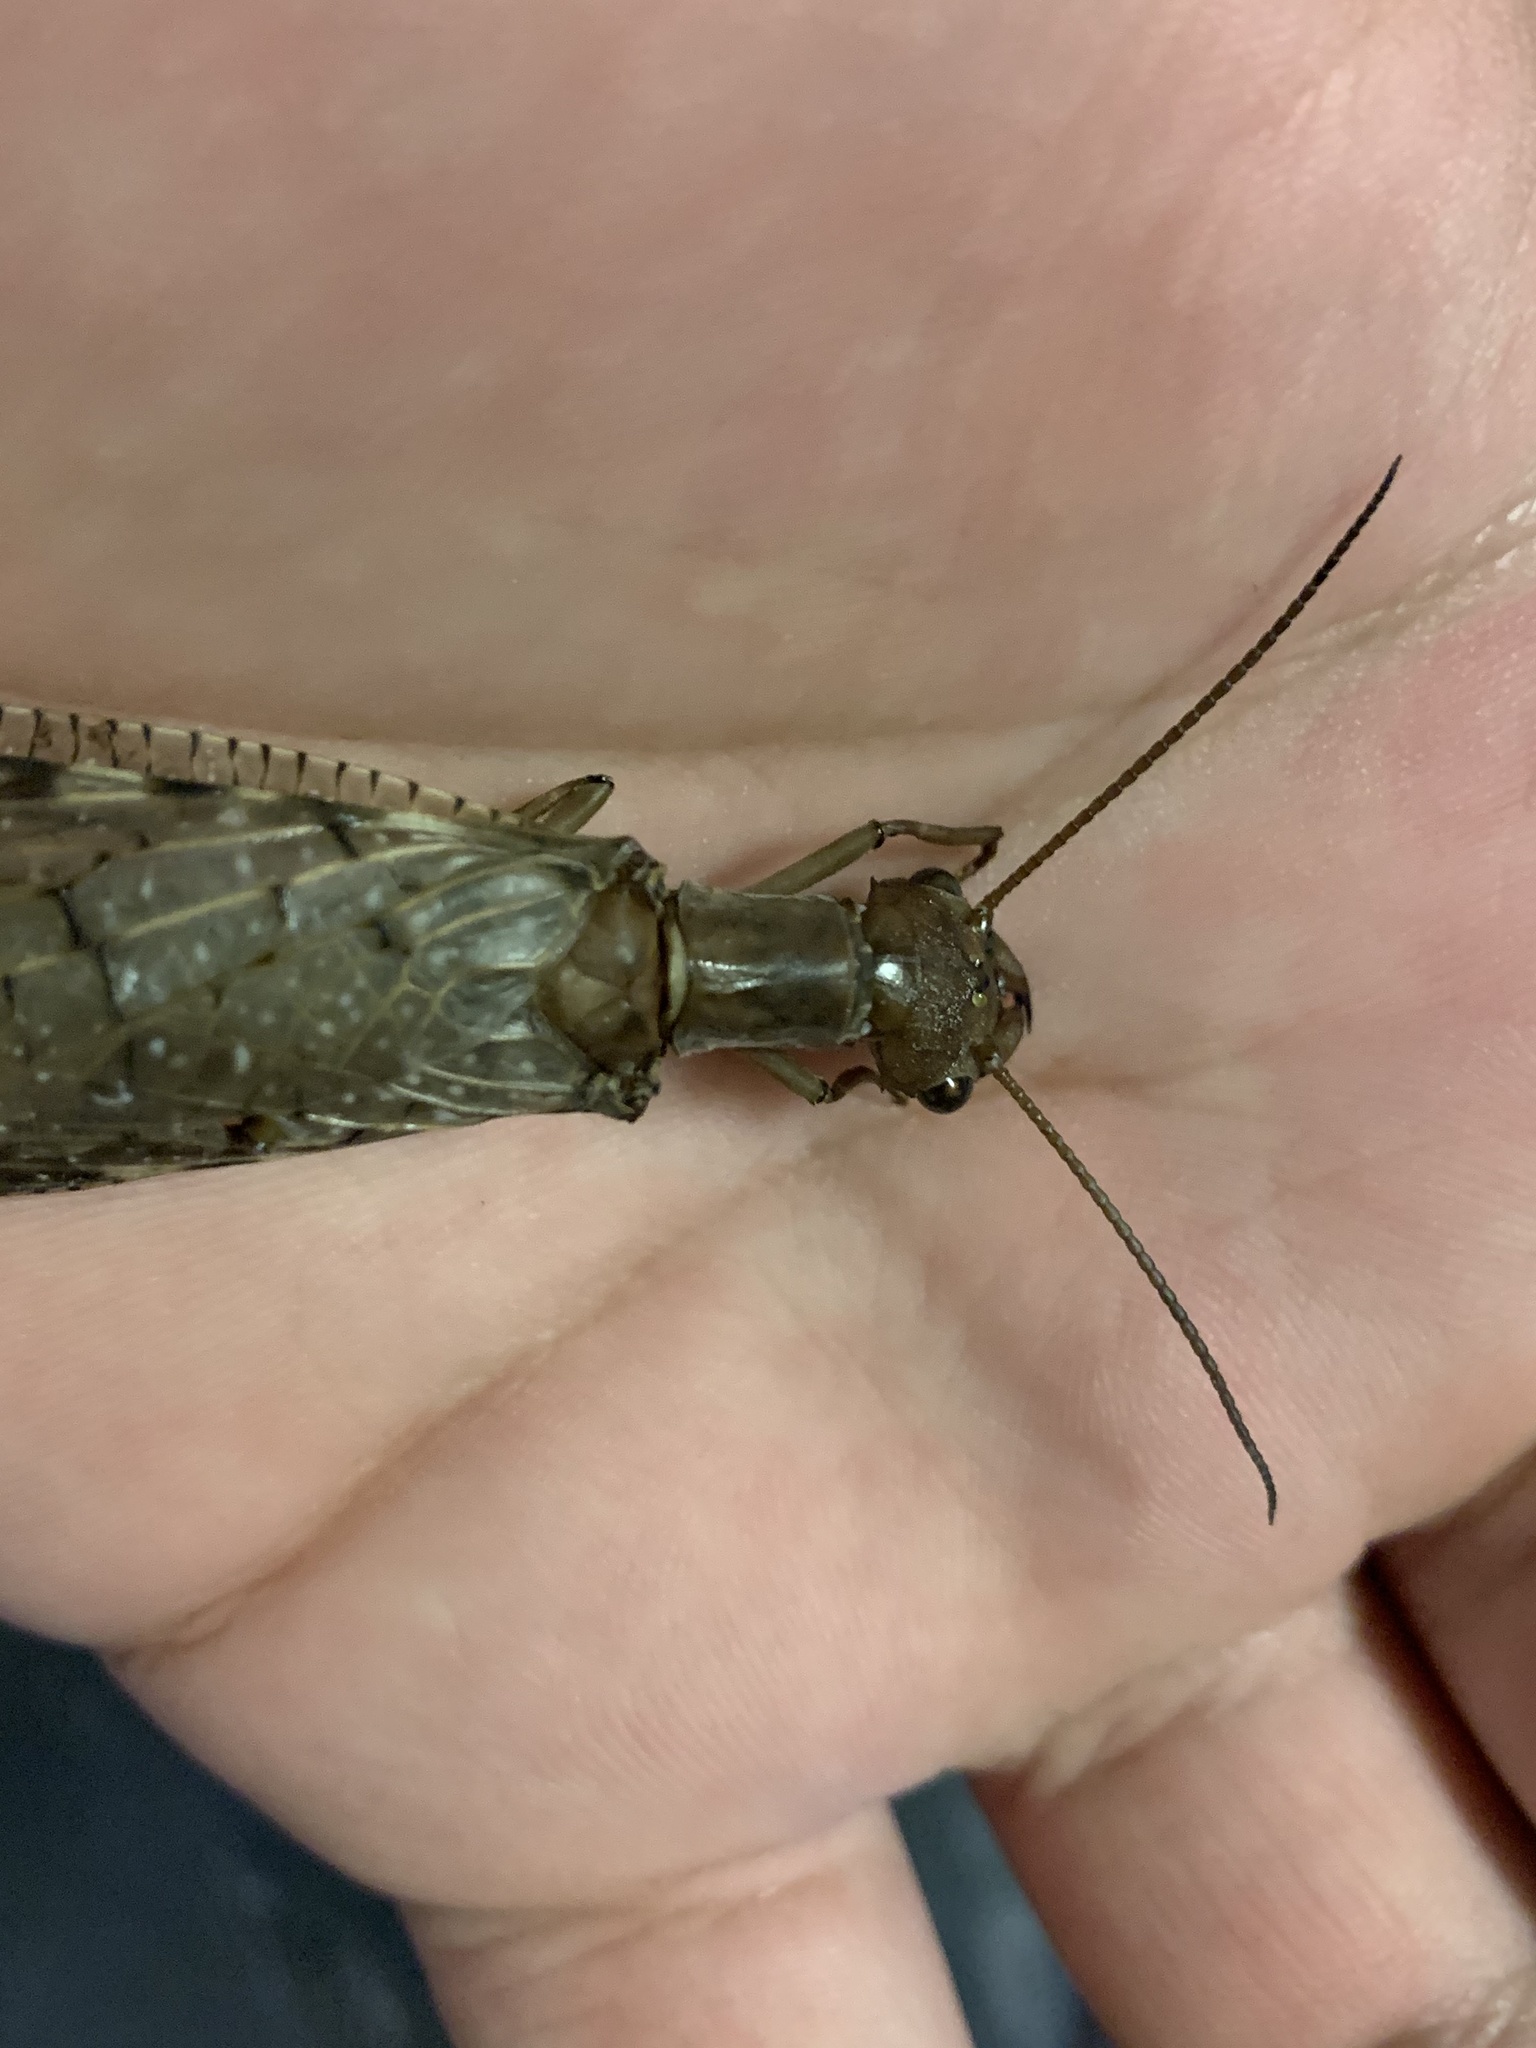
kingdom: Animalia
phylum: Arthropoda
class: Insecta
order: Megaloptera
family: Corydalidae
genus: Corydalus
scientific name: Corydalus luteus
